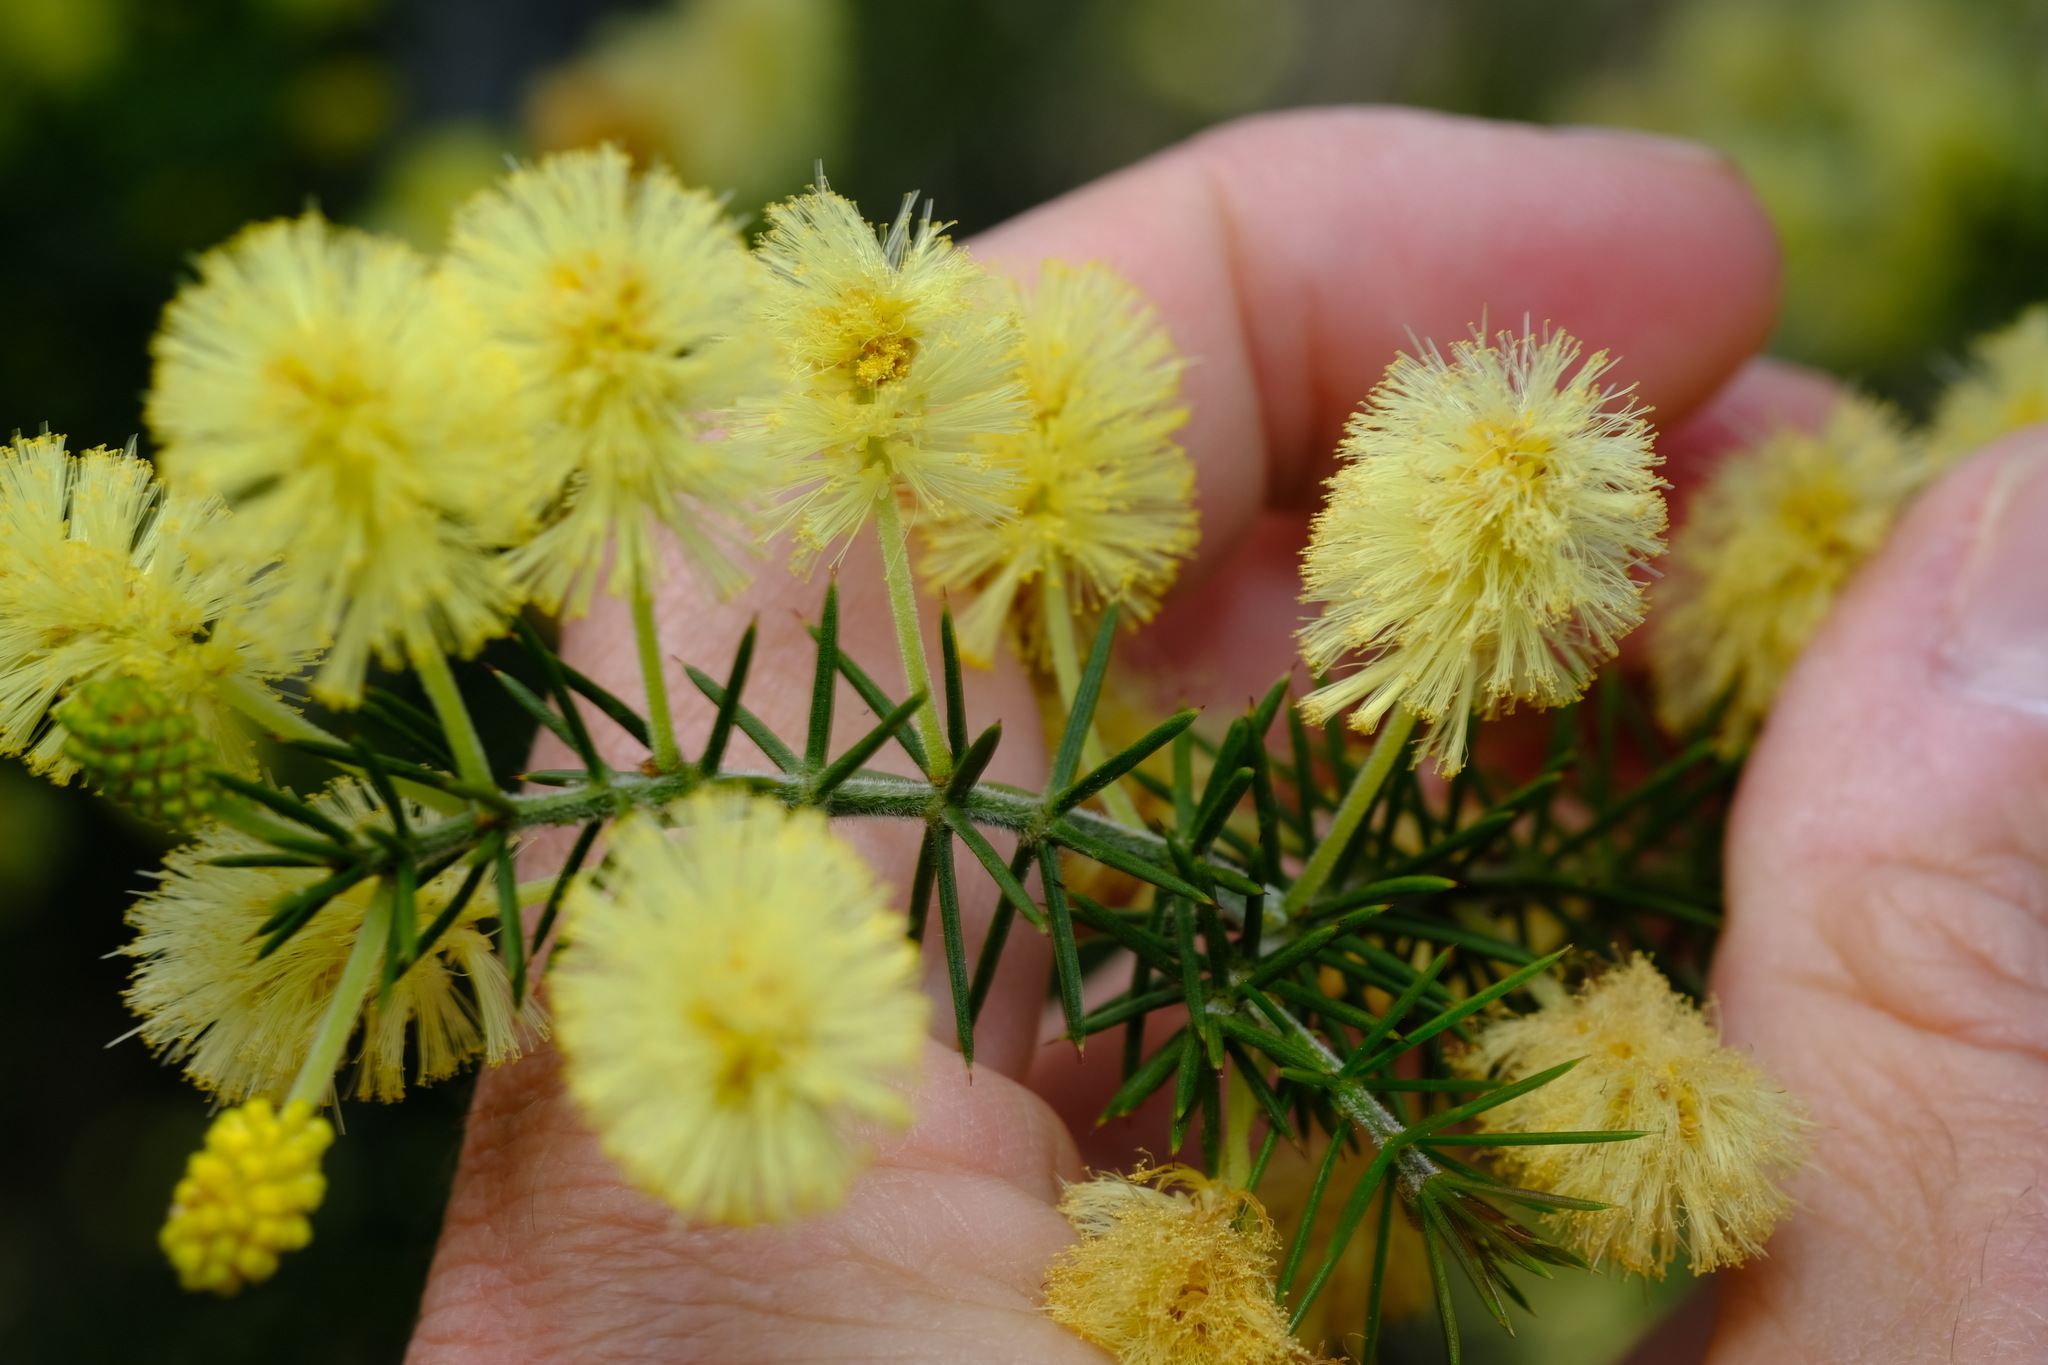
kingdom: Plantae
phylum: Tracheophyta
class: Magnoliopsida
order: Fabales
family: Fabaceae
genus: Acacia
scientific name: Acacia verticillata
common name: Prickly moses
